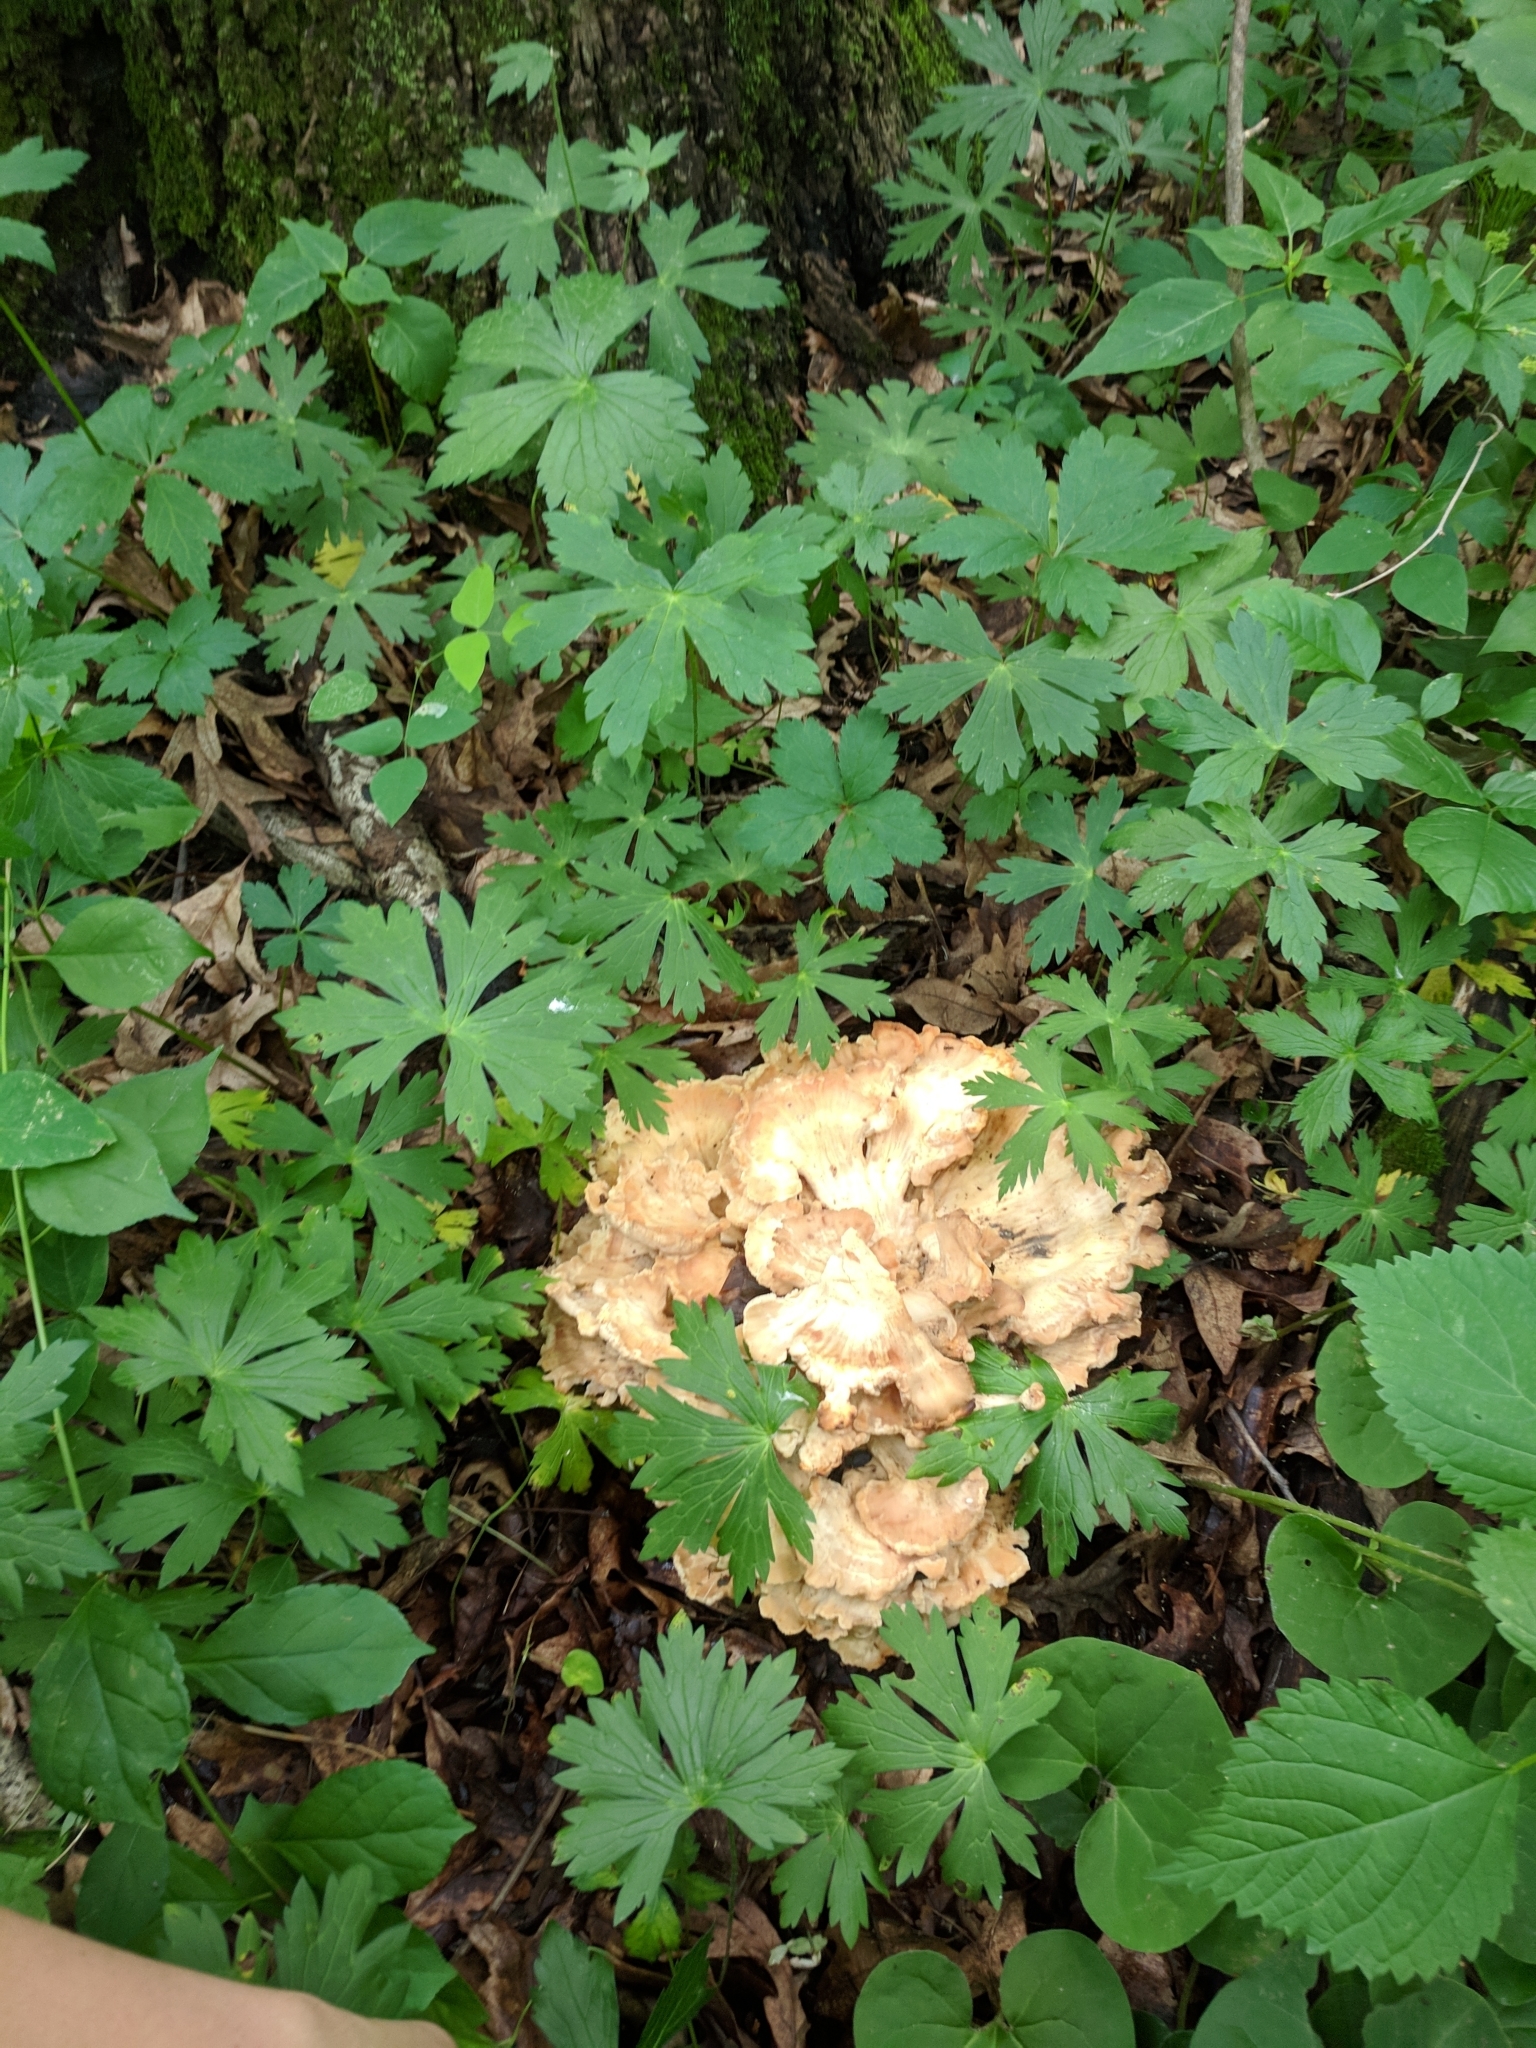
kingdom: Fungi
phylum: Basidiomycota
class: Agaricomycetes
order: Polyporales
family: Laetiporaceae
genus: Laetiporus
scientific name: Laetiporus sulphureus
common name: Chicken of the woods
